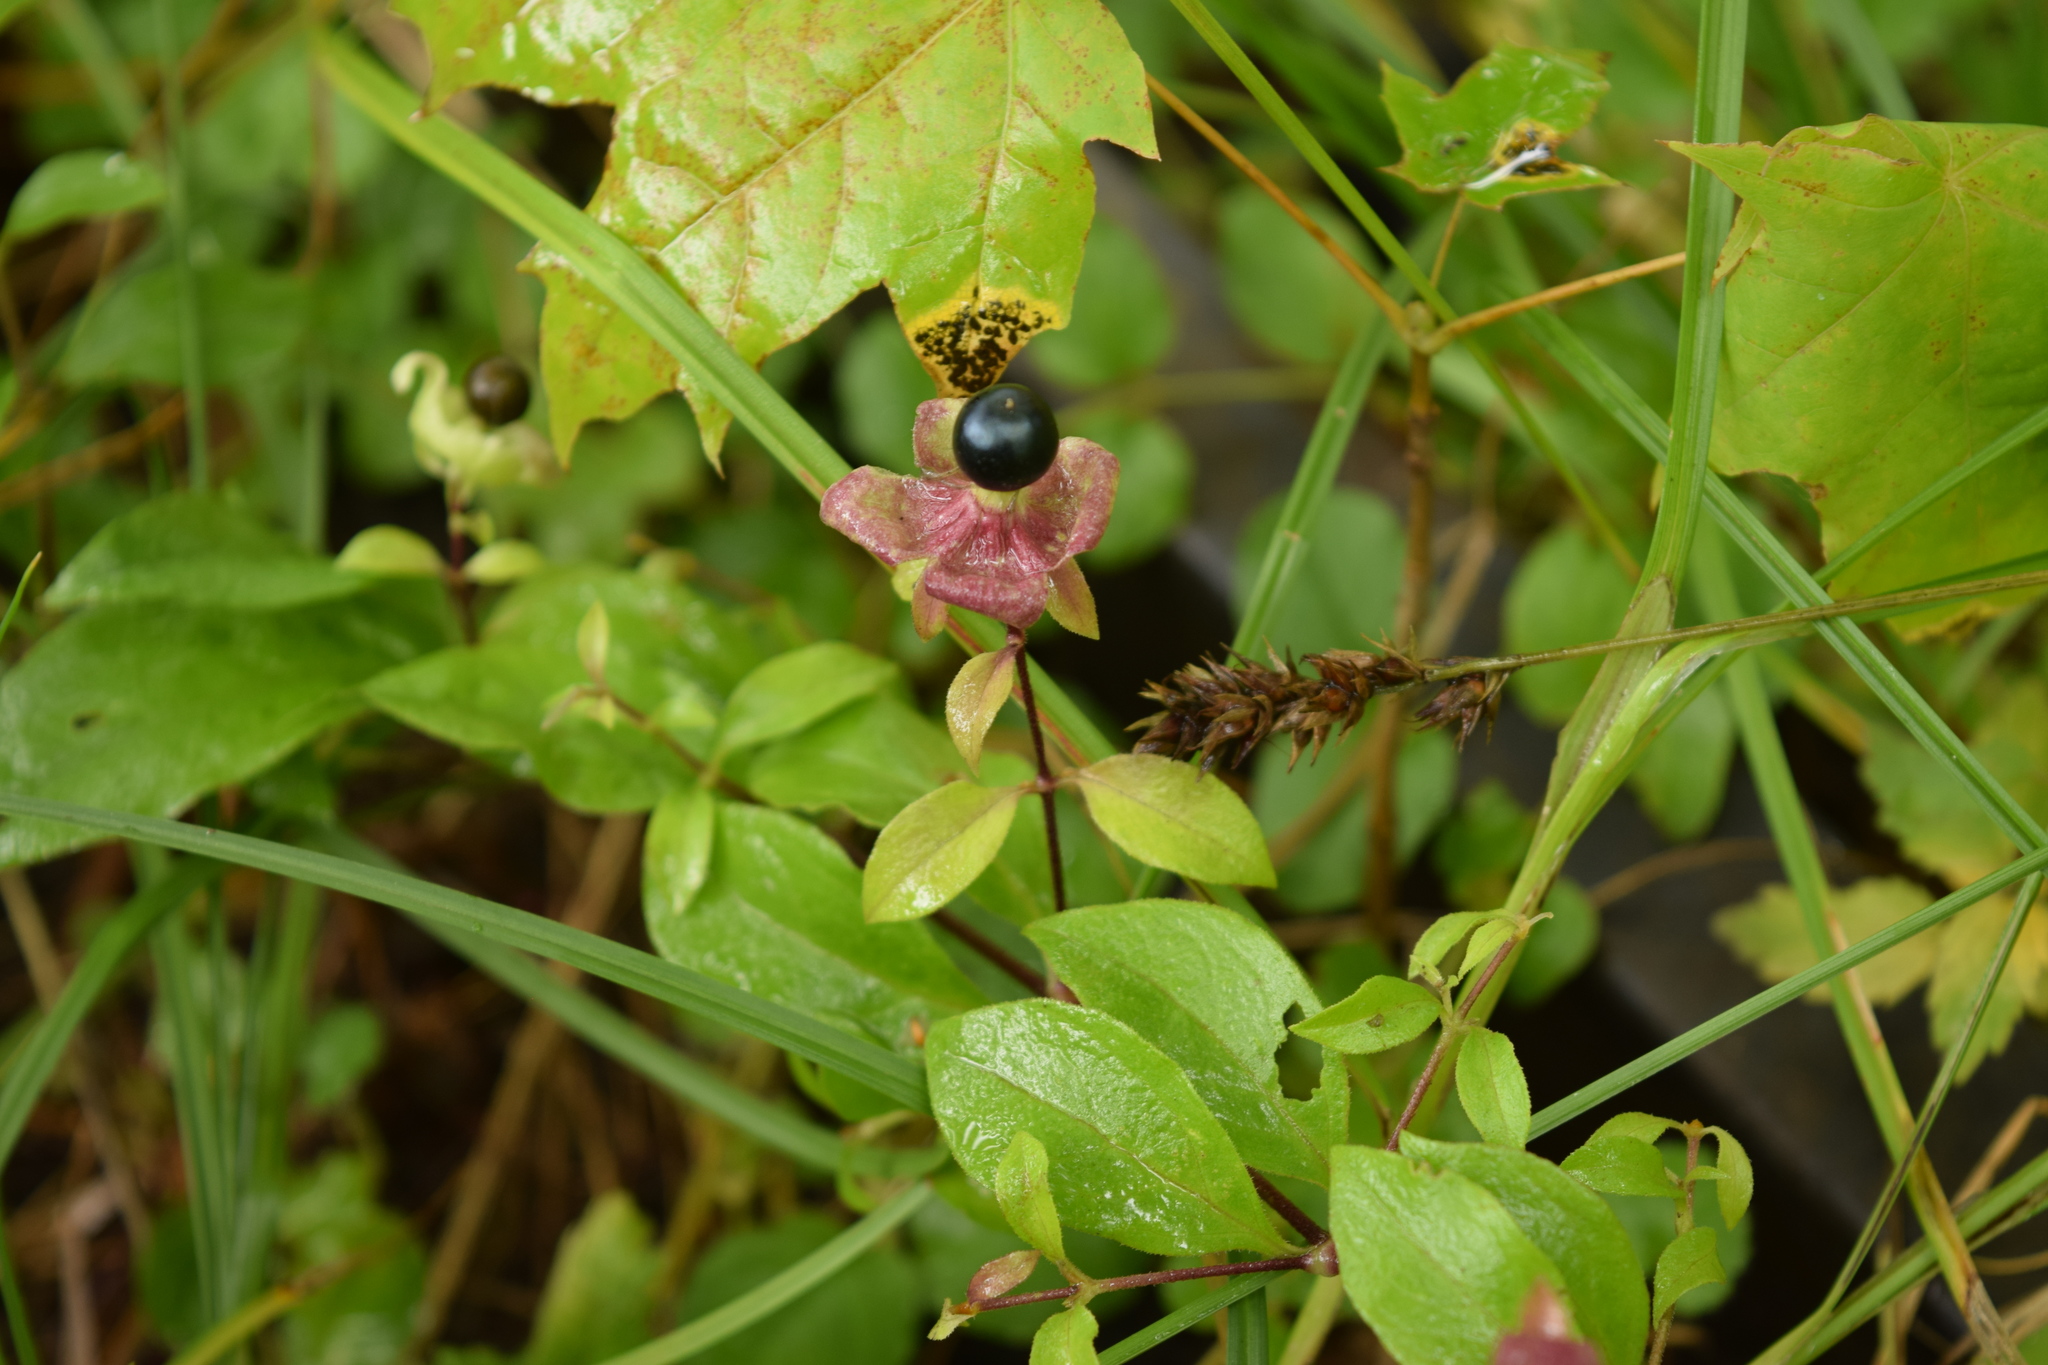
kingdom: Plantae
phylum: Tracheophyta
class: Magnoliopsida
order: Caryophyllales
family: Caryophyllaceae
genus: Silene
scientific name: Silene baccifera
